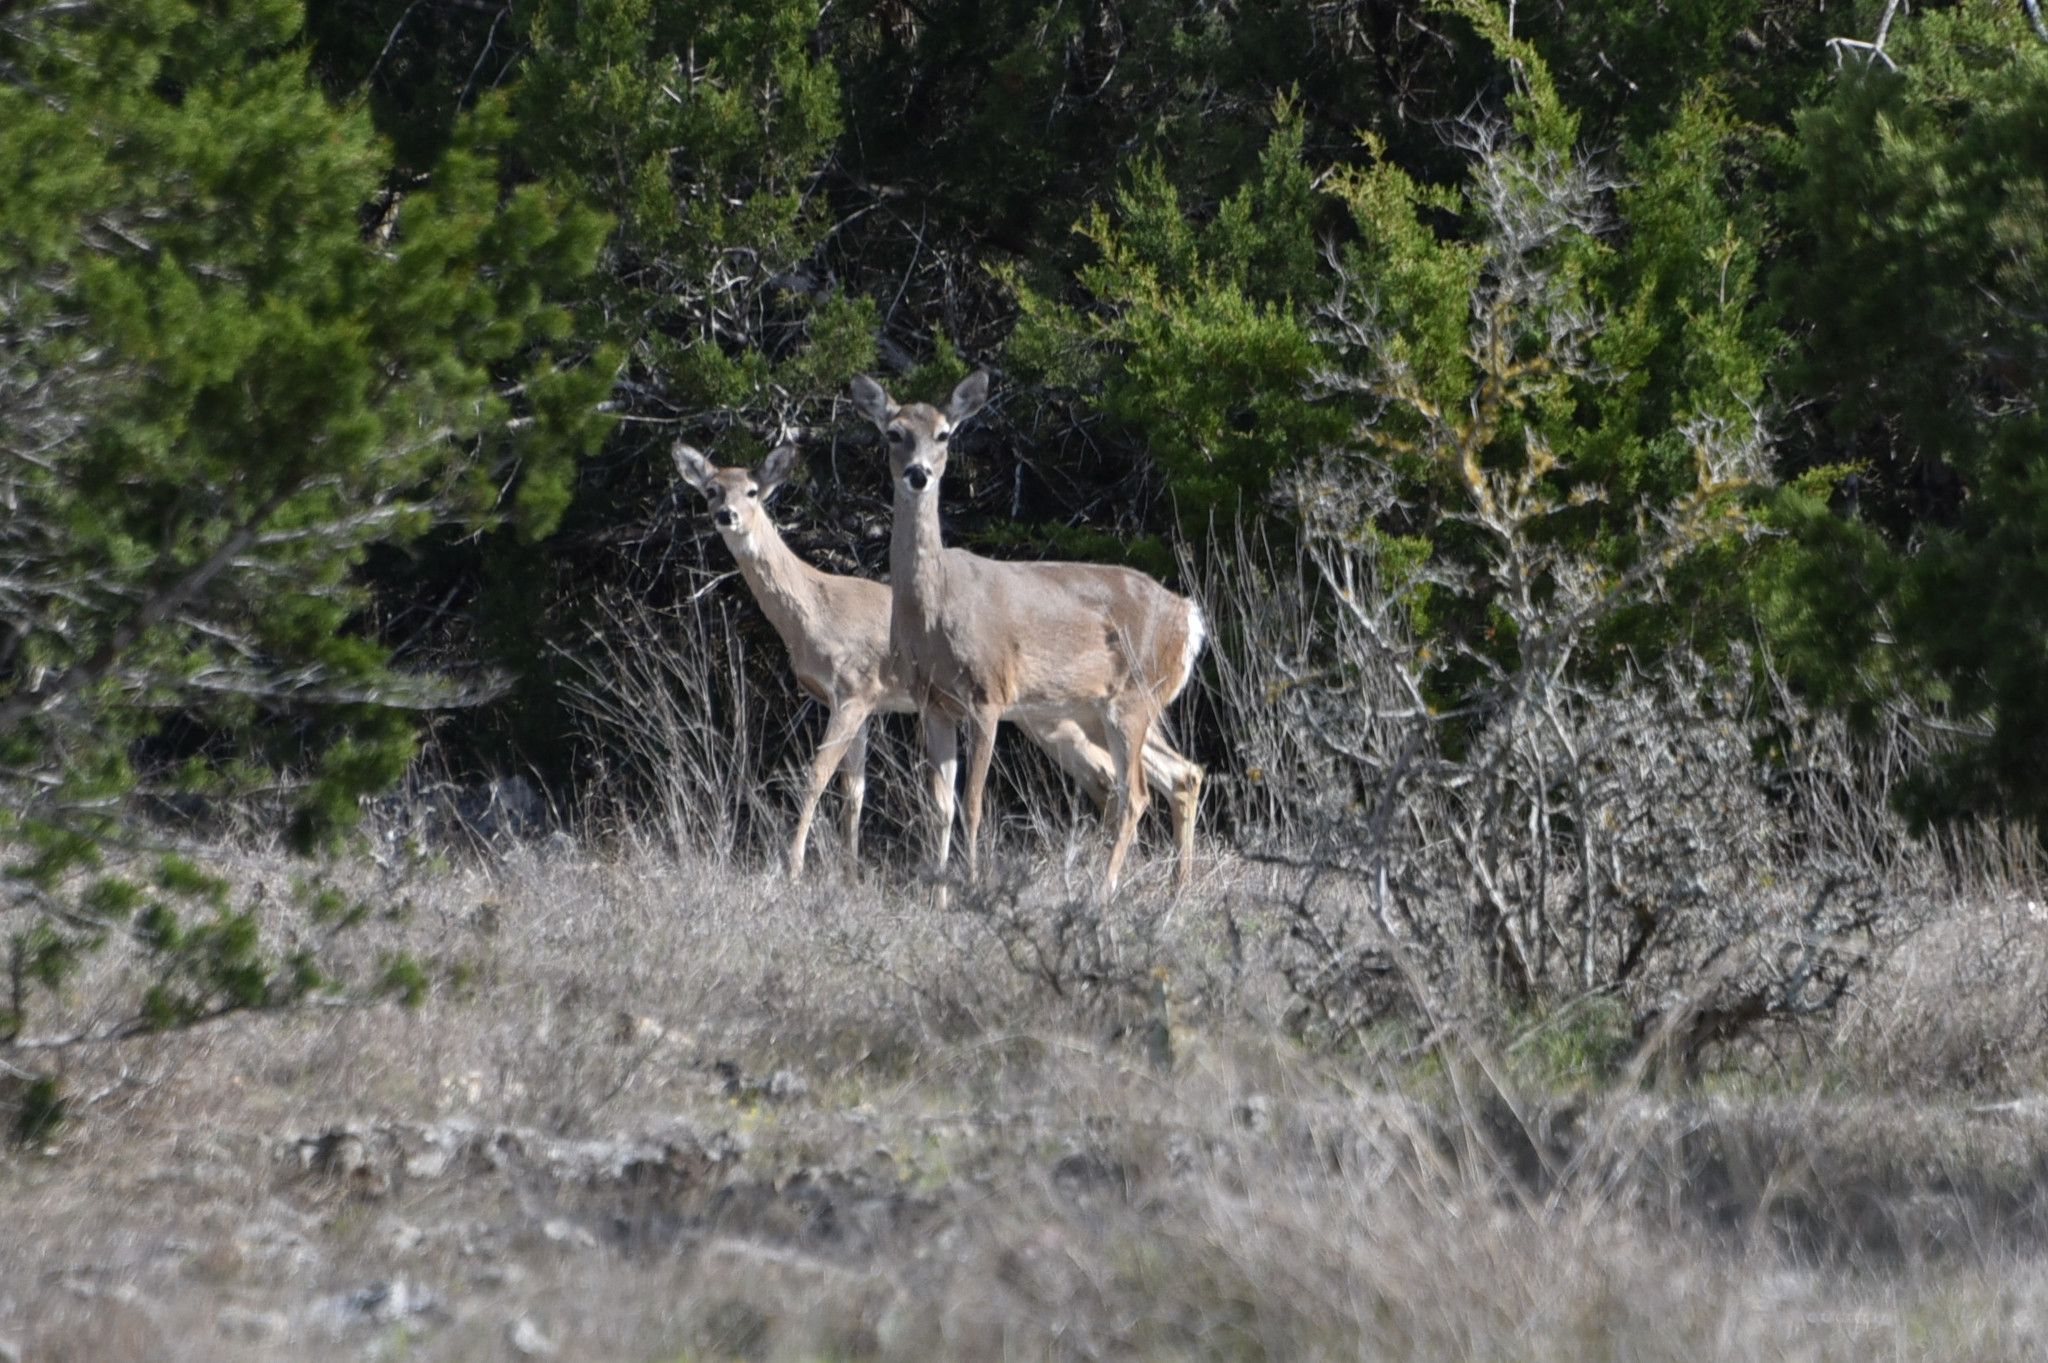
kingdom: Animalia
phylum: Chordata
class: Mammalia
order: Artiodactyla
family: Cervidae
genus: Odocoileus
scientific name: Odocoileus virginianus
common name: White-tailed deer
